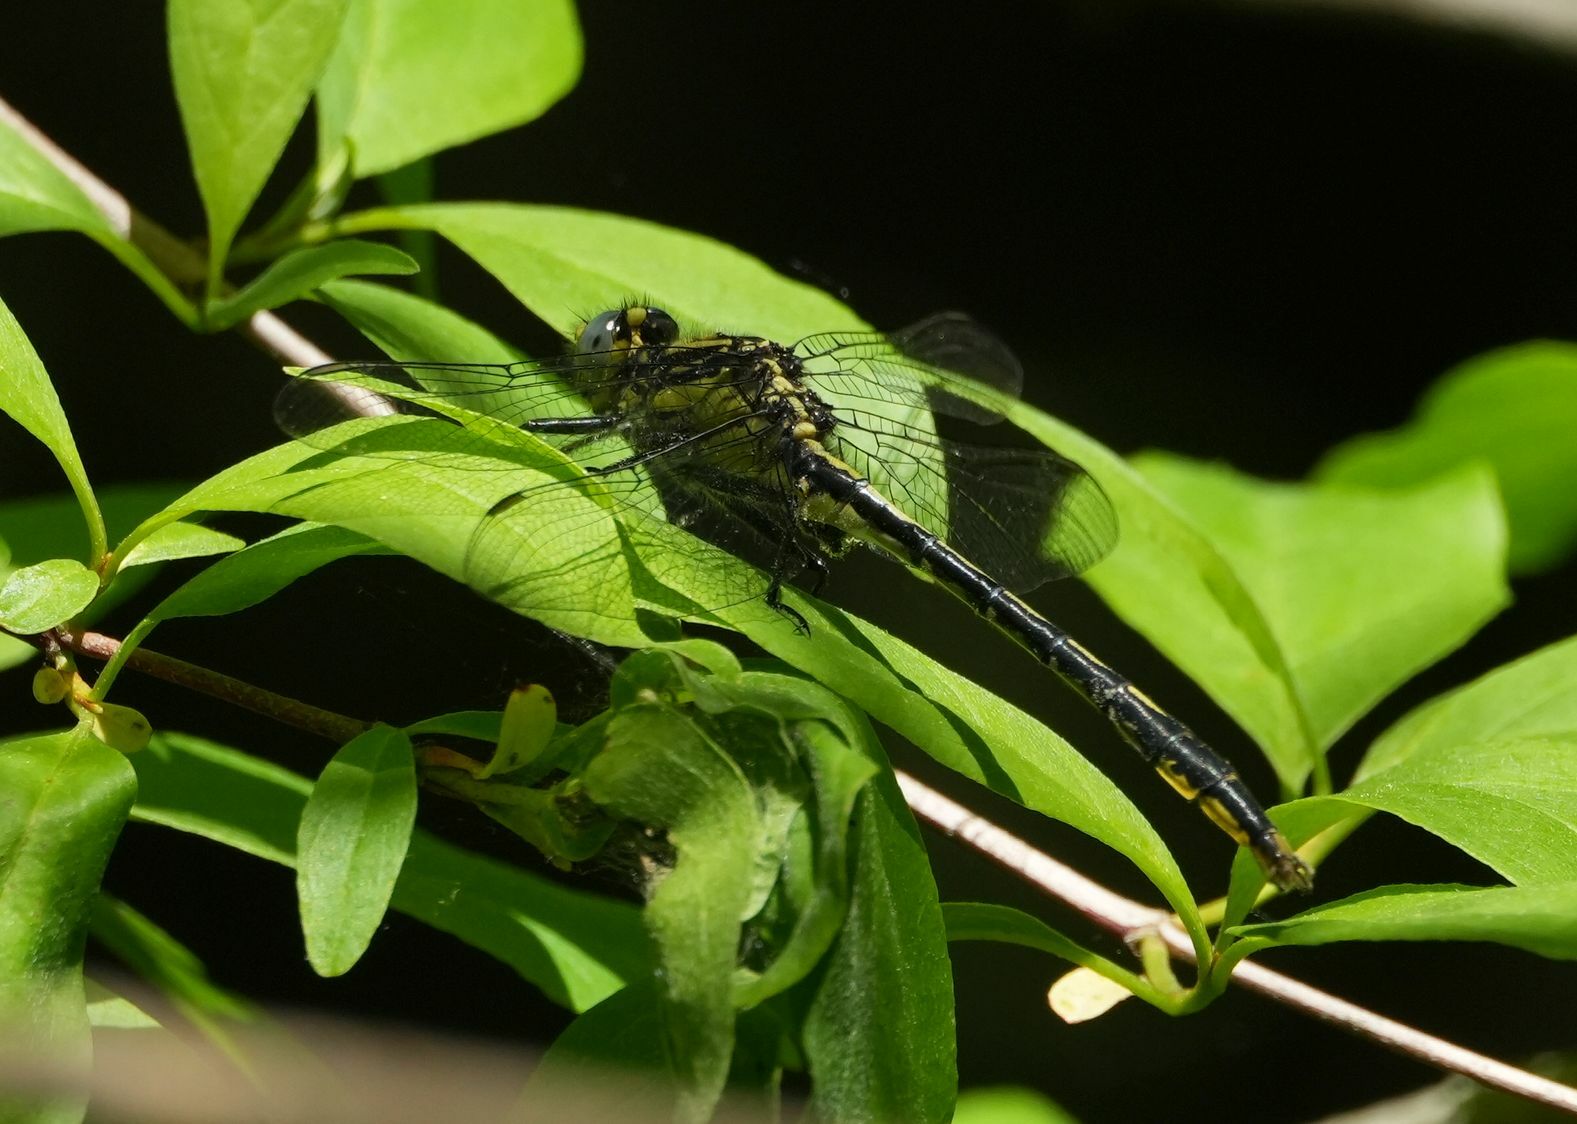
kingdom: Animalia
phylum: Arthropoda
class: Insecta
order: Odonata
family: Gomphidae
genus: Arigomphus
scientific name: Arigomphus furcifer
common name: Lilypad clubtail
